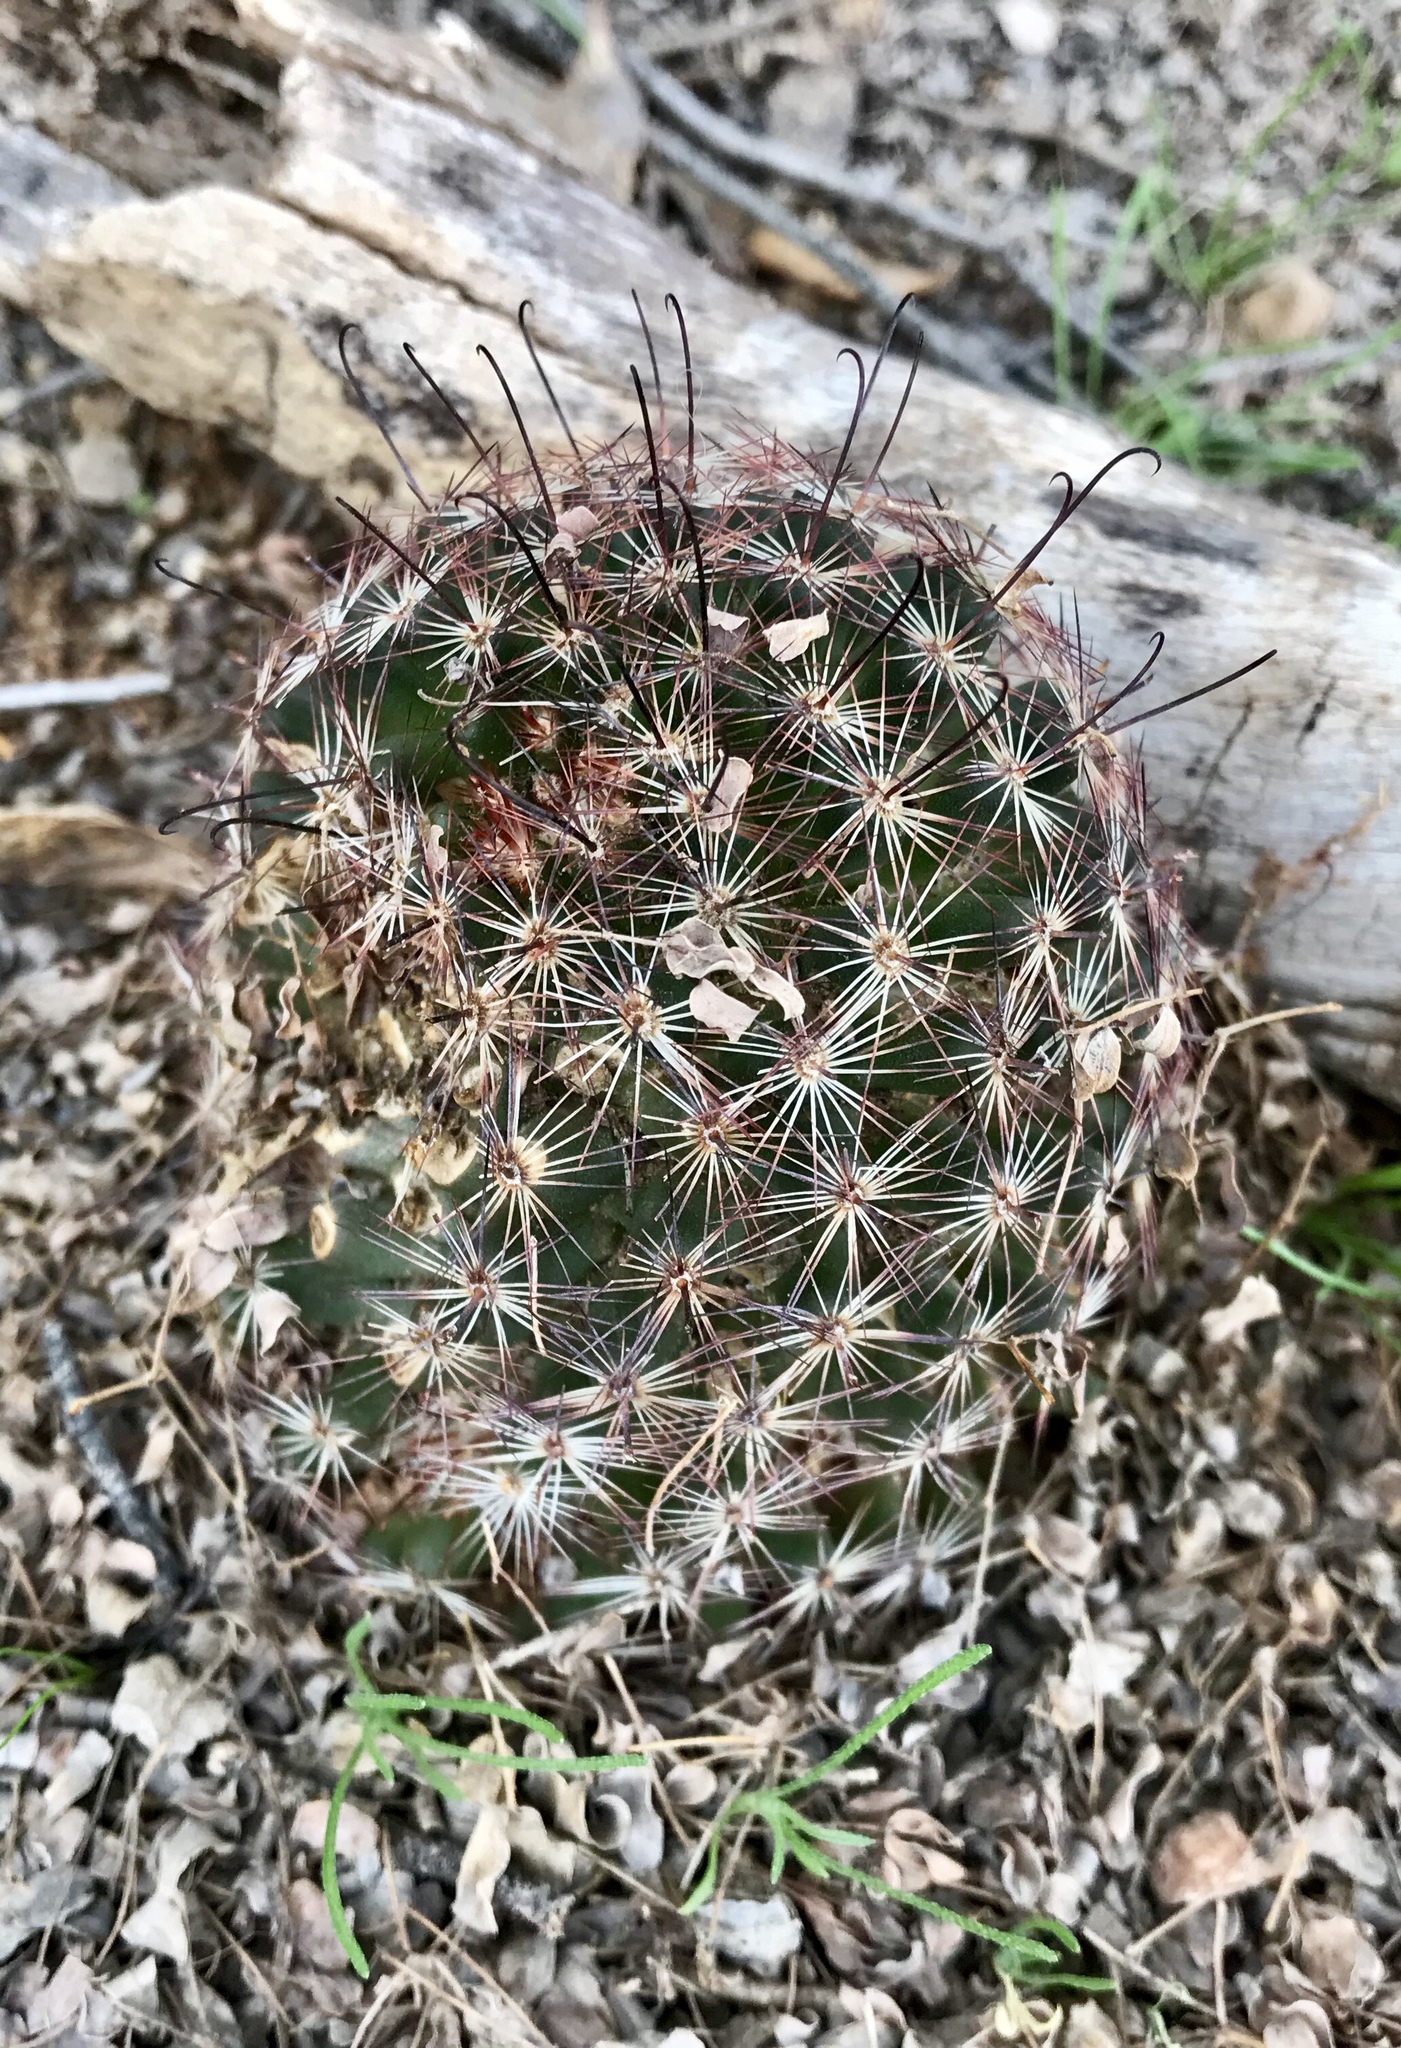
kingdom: Plantae
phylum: Tracheophyta
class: Magnoliopsida
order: Caryophyllales
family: Cactaceae
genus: Cochemiea
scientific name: Cochemiea grahamii
